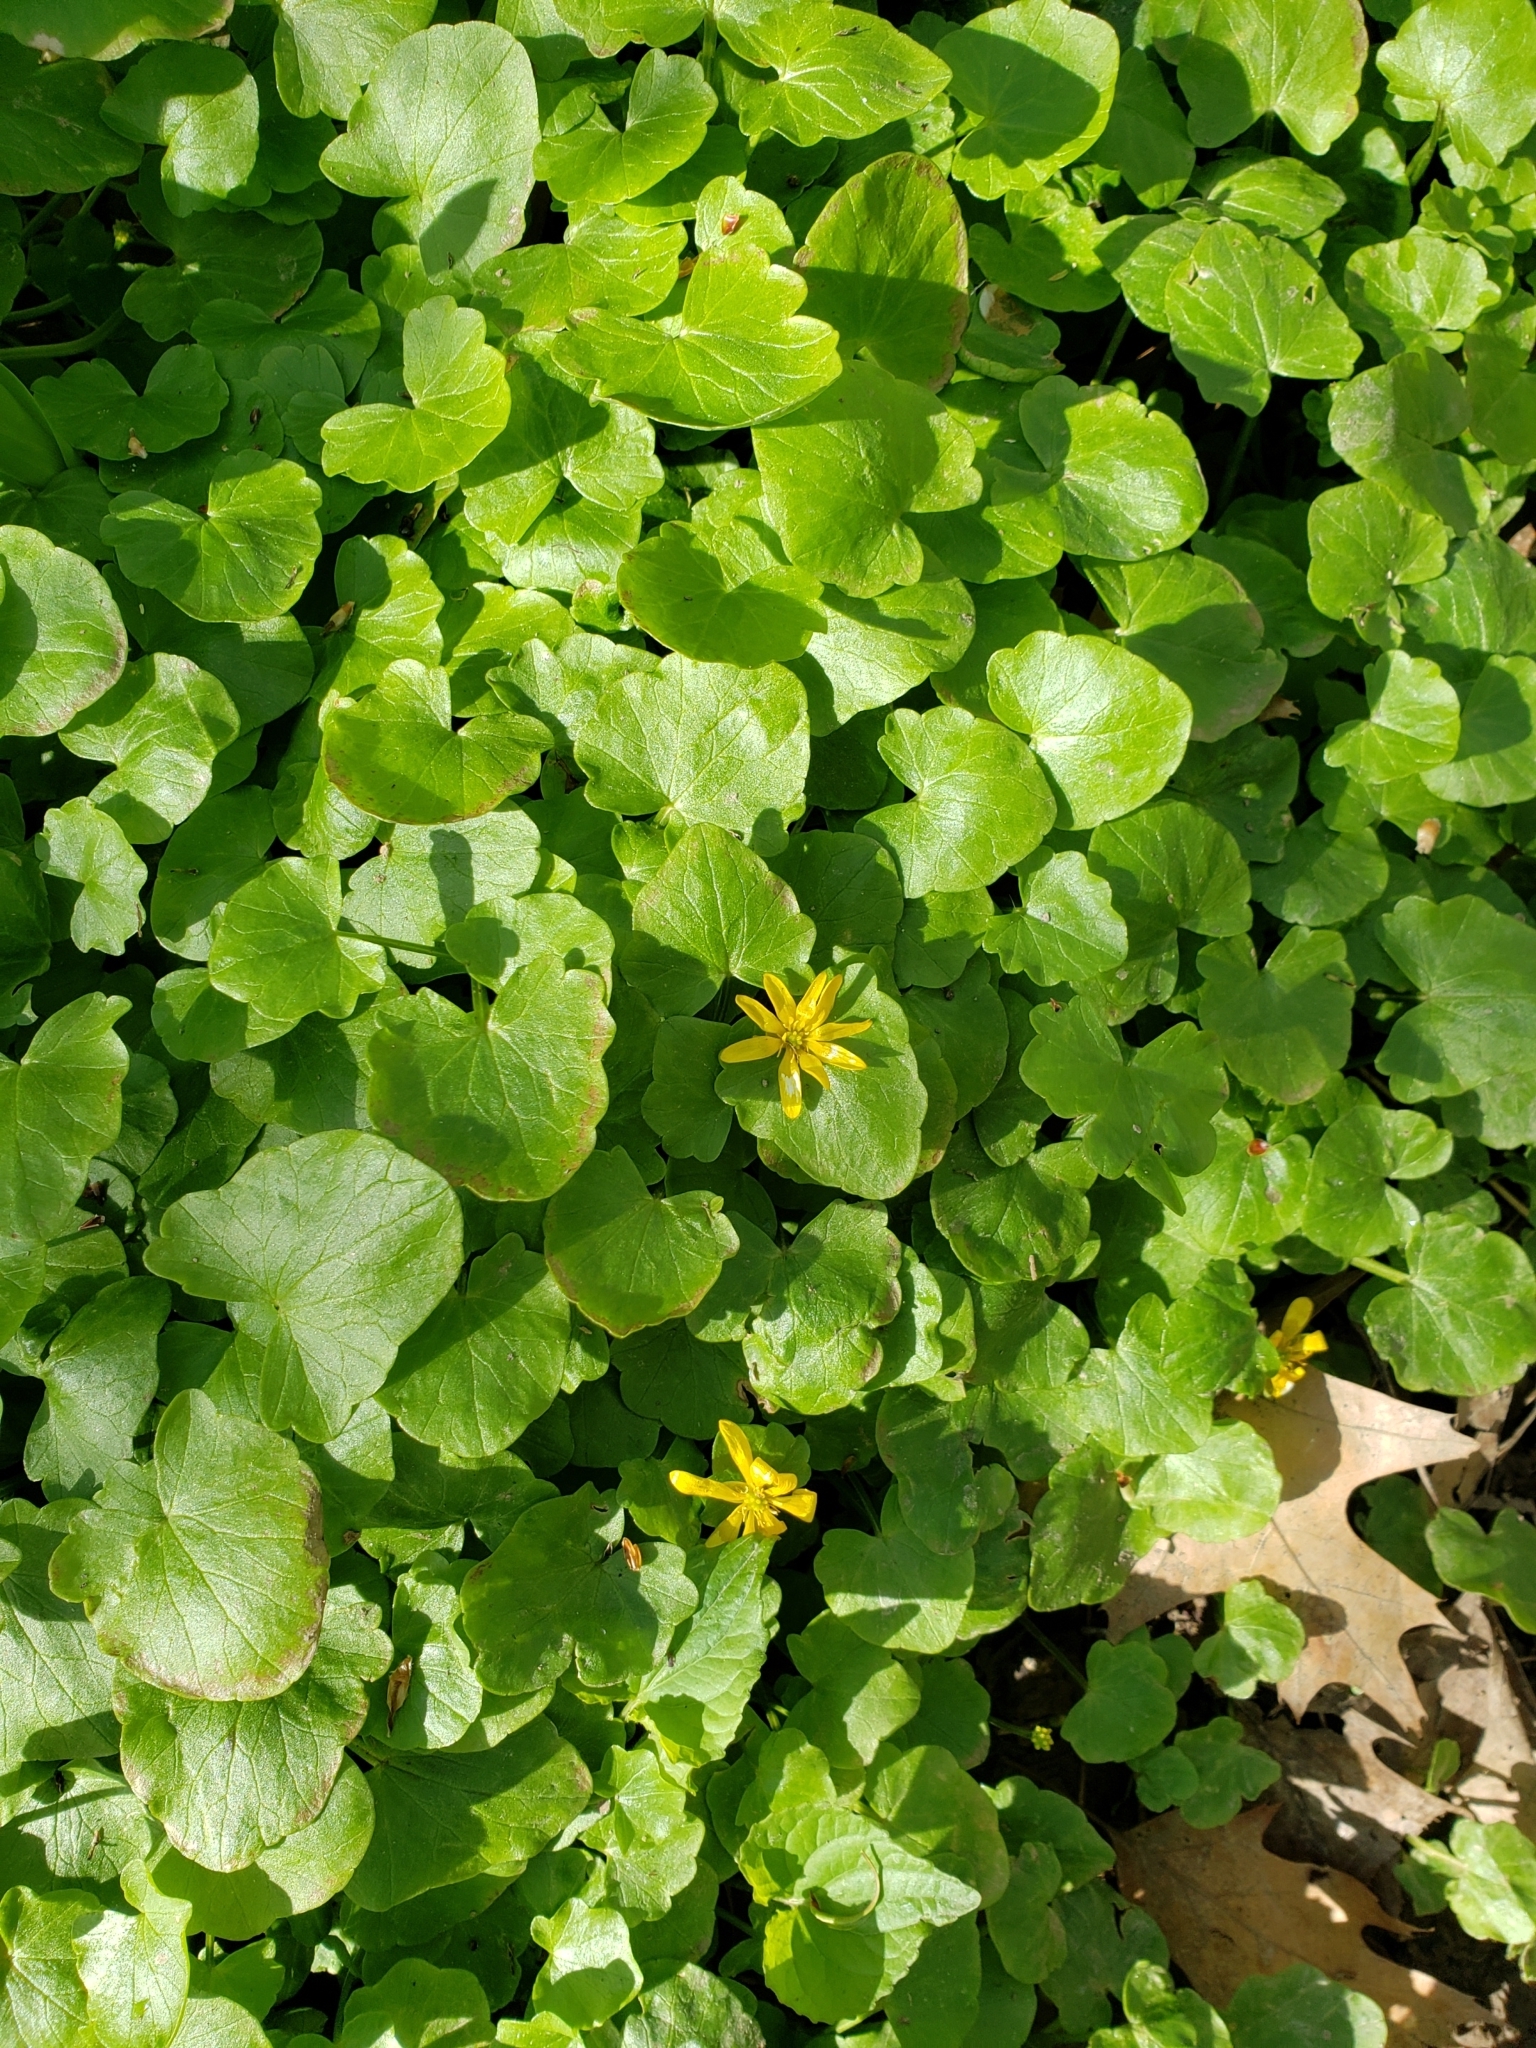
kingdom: Plantae
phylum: Tracheophyta
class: Magnoliopsida
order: Ranunculales
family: Ranunculaceae
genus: Ficaria
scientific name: Ficaria verna
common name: Lesser celandine
